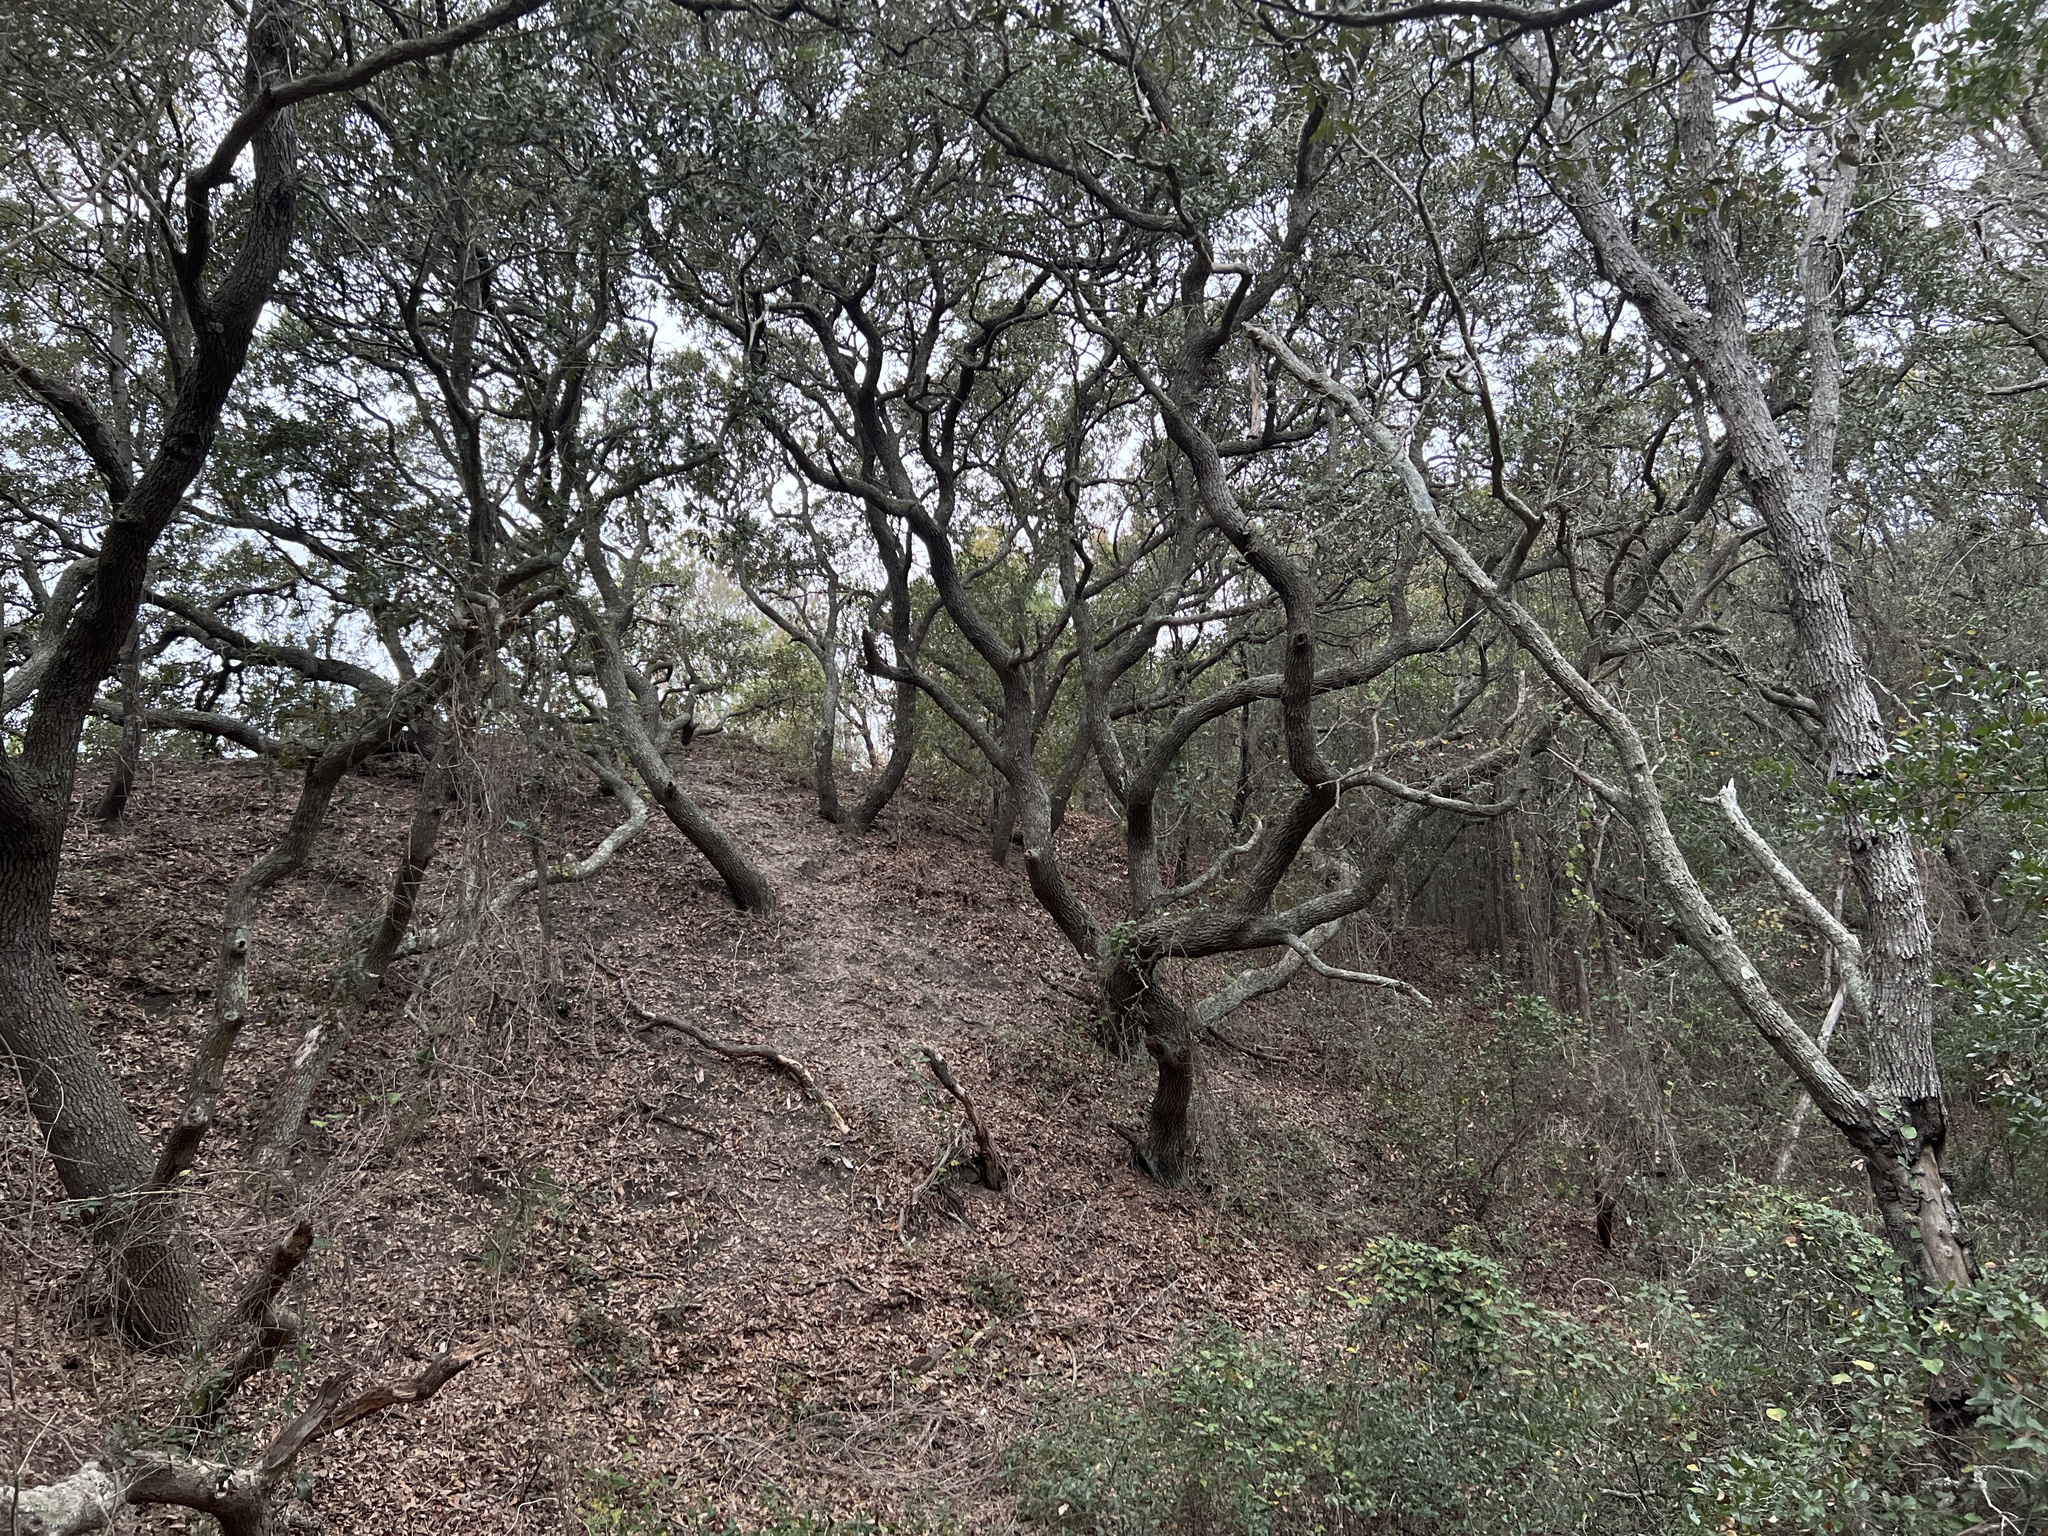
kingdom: Plantae
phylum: Tracheophyta
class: Magnoliopsida
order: Fagales
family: Fagaceae
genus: Quercus
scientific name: Quercus virginiana
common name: Southern live oak
